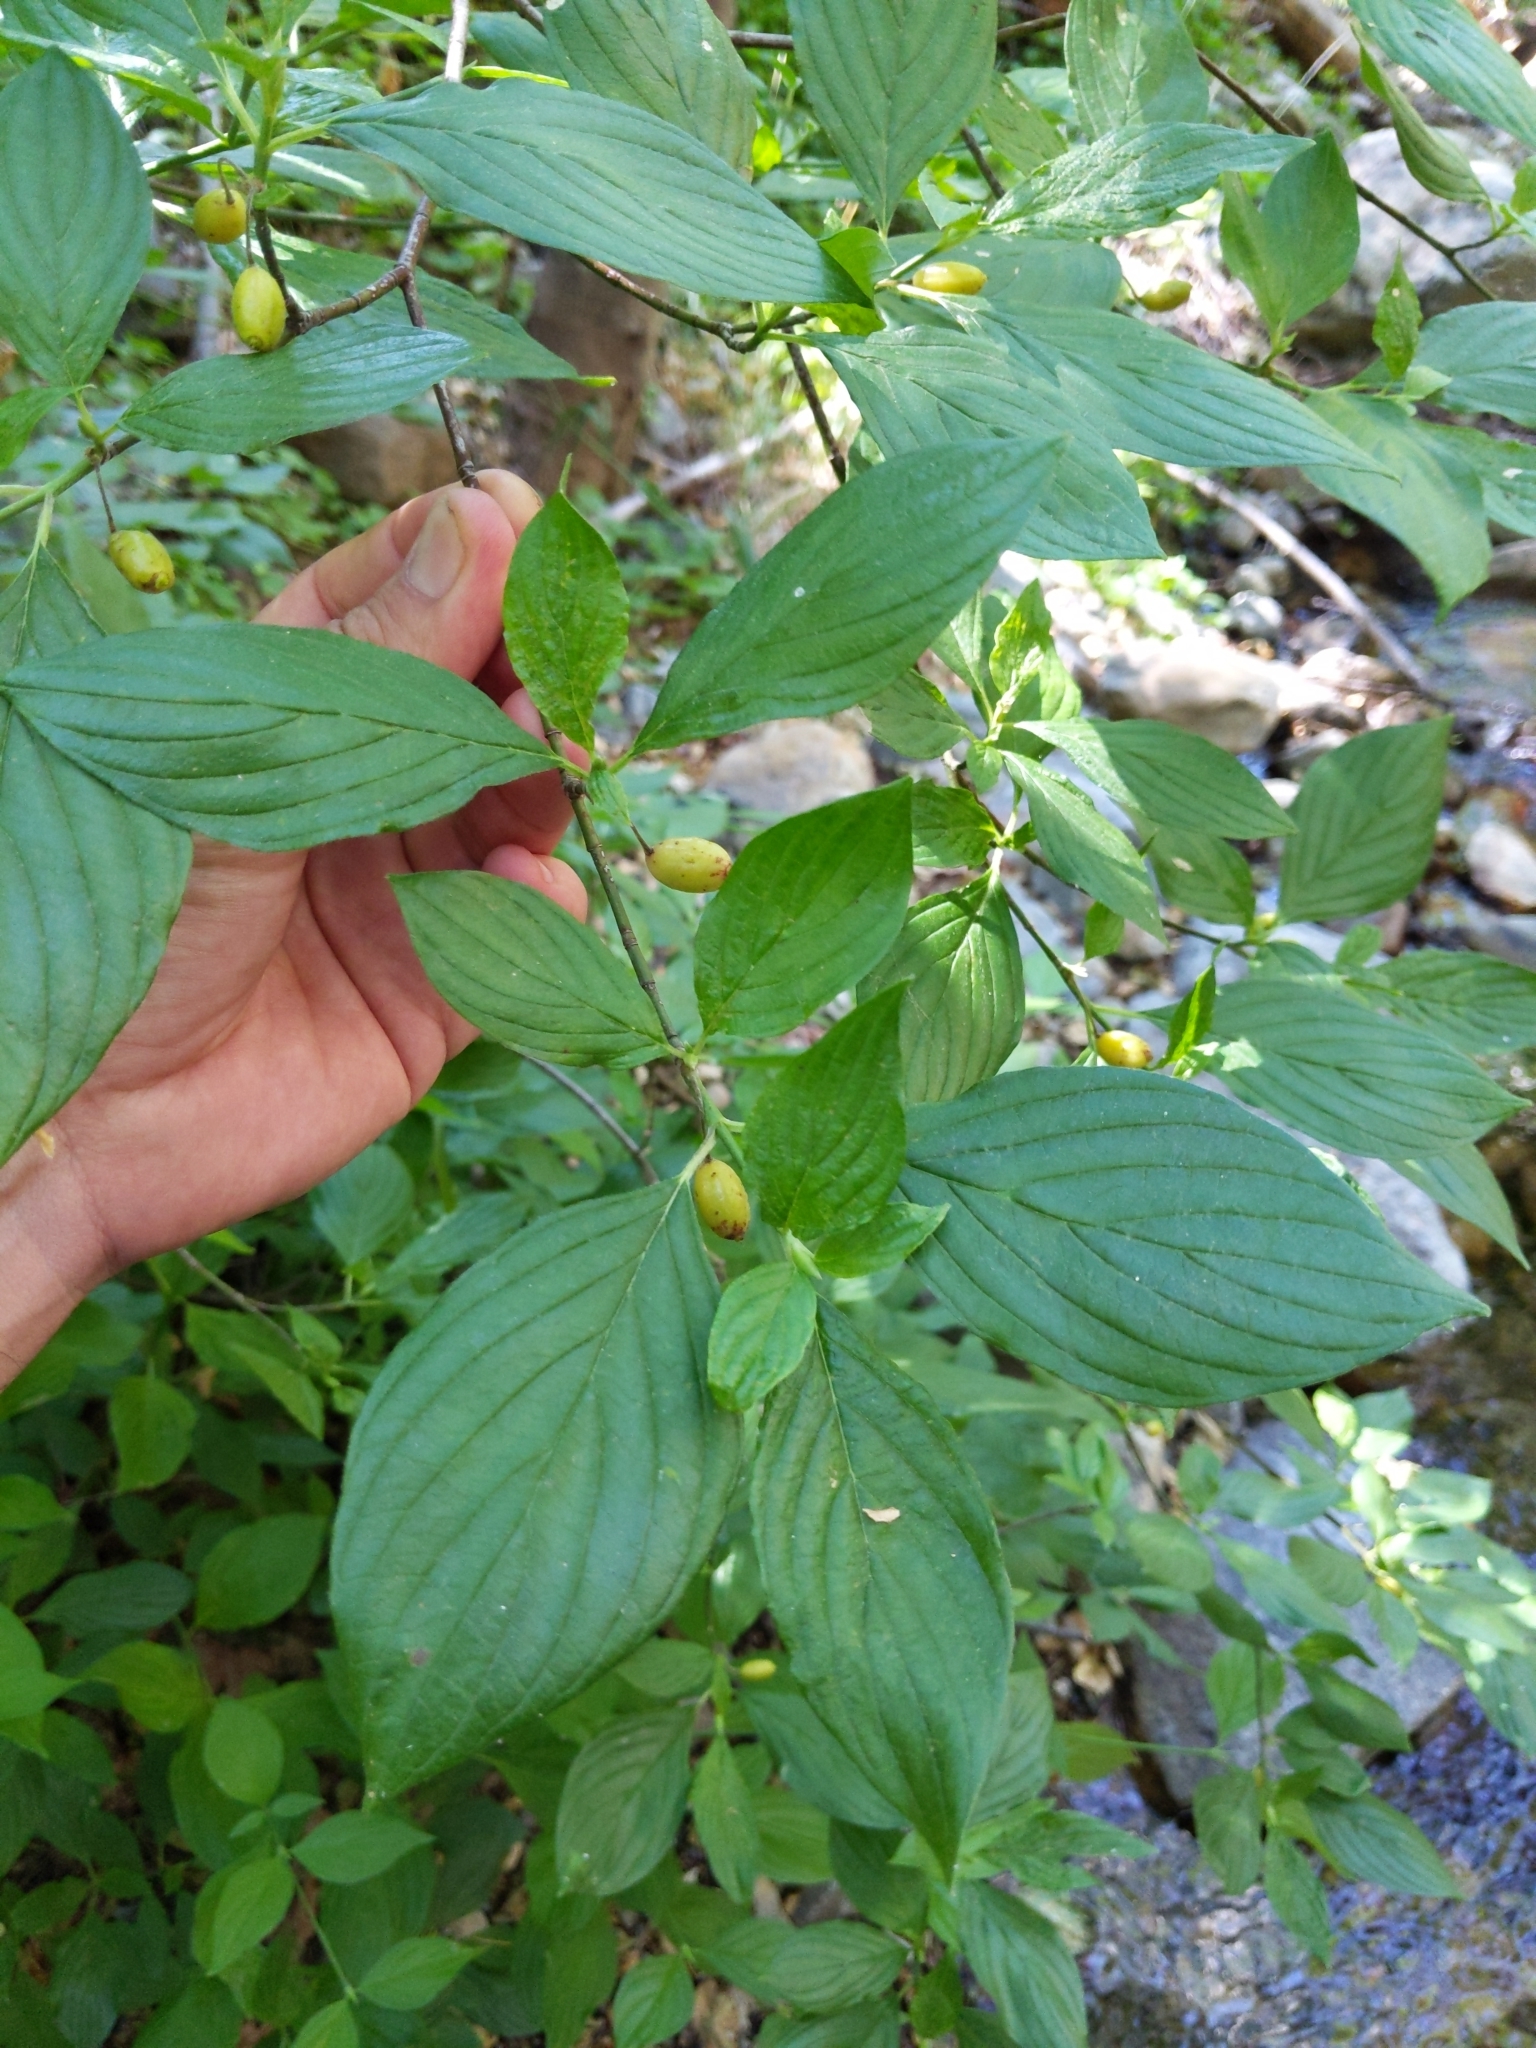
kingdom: Plantae
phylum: Tracheophyta
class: Magnoliopsida
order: Cornales
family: Cornaceae
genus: Cornus
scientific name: Cornus sessilis
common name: Blackfruit dogwood
